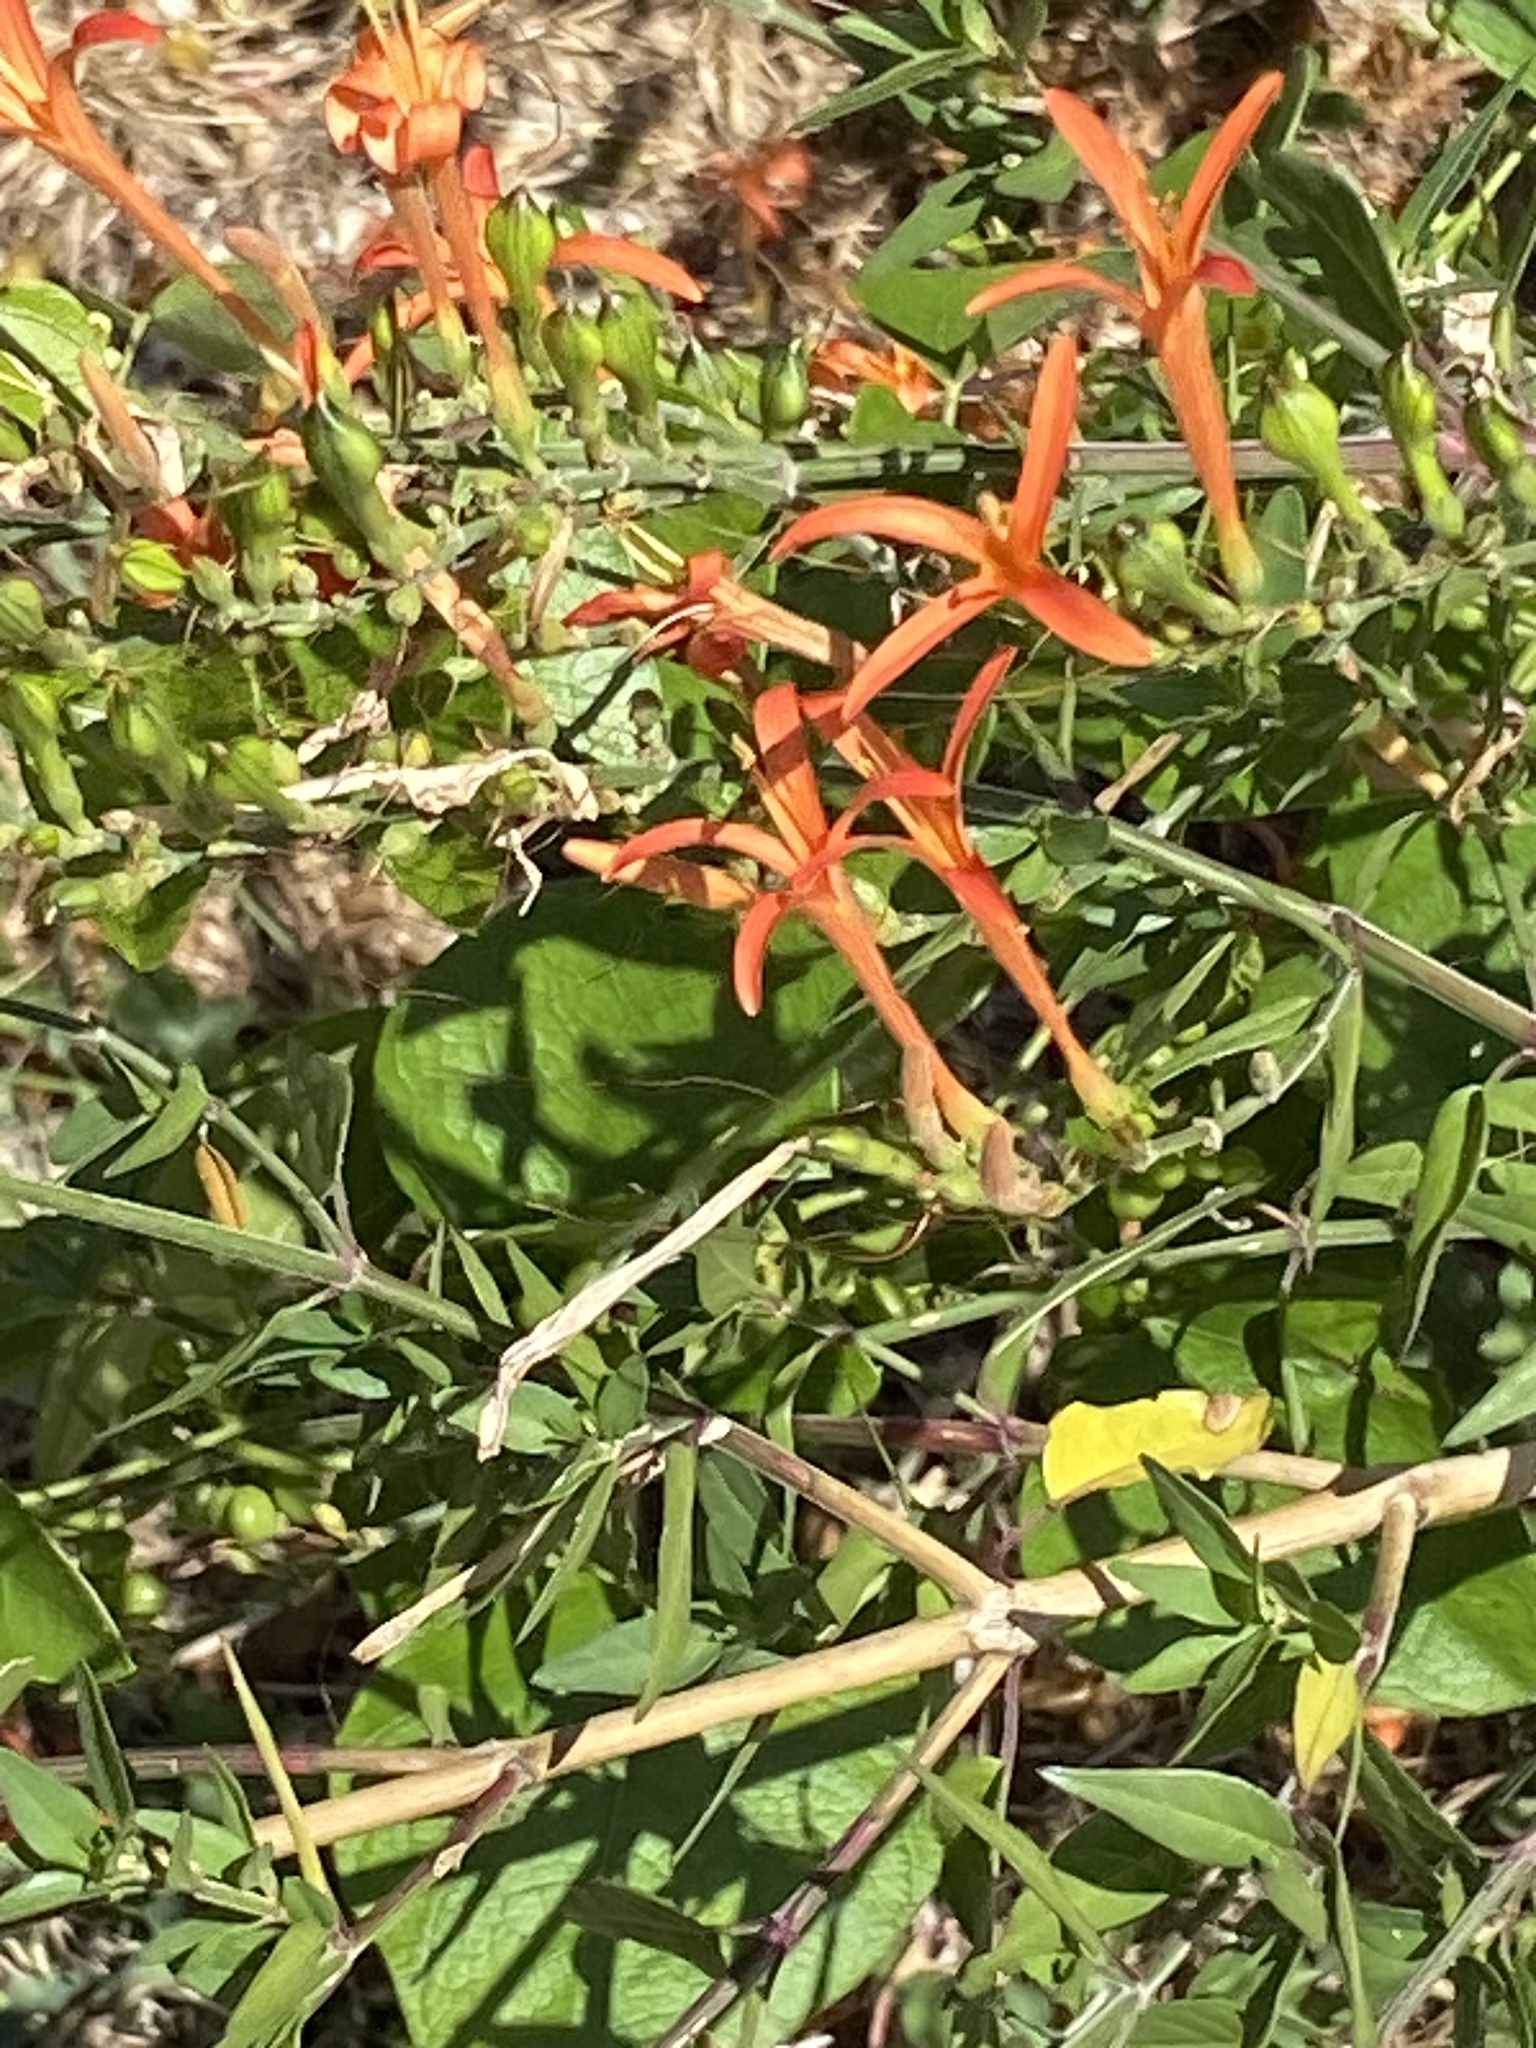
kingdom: Plantae
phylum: Tracheophyta
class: Magnoliopsida
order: Lamiales
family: Acanthaceae
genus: Anisacanthus
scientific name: Anisacanthus quadrifidus
